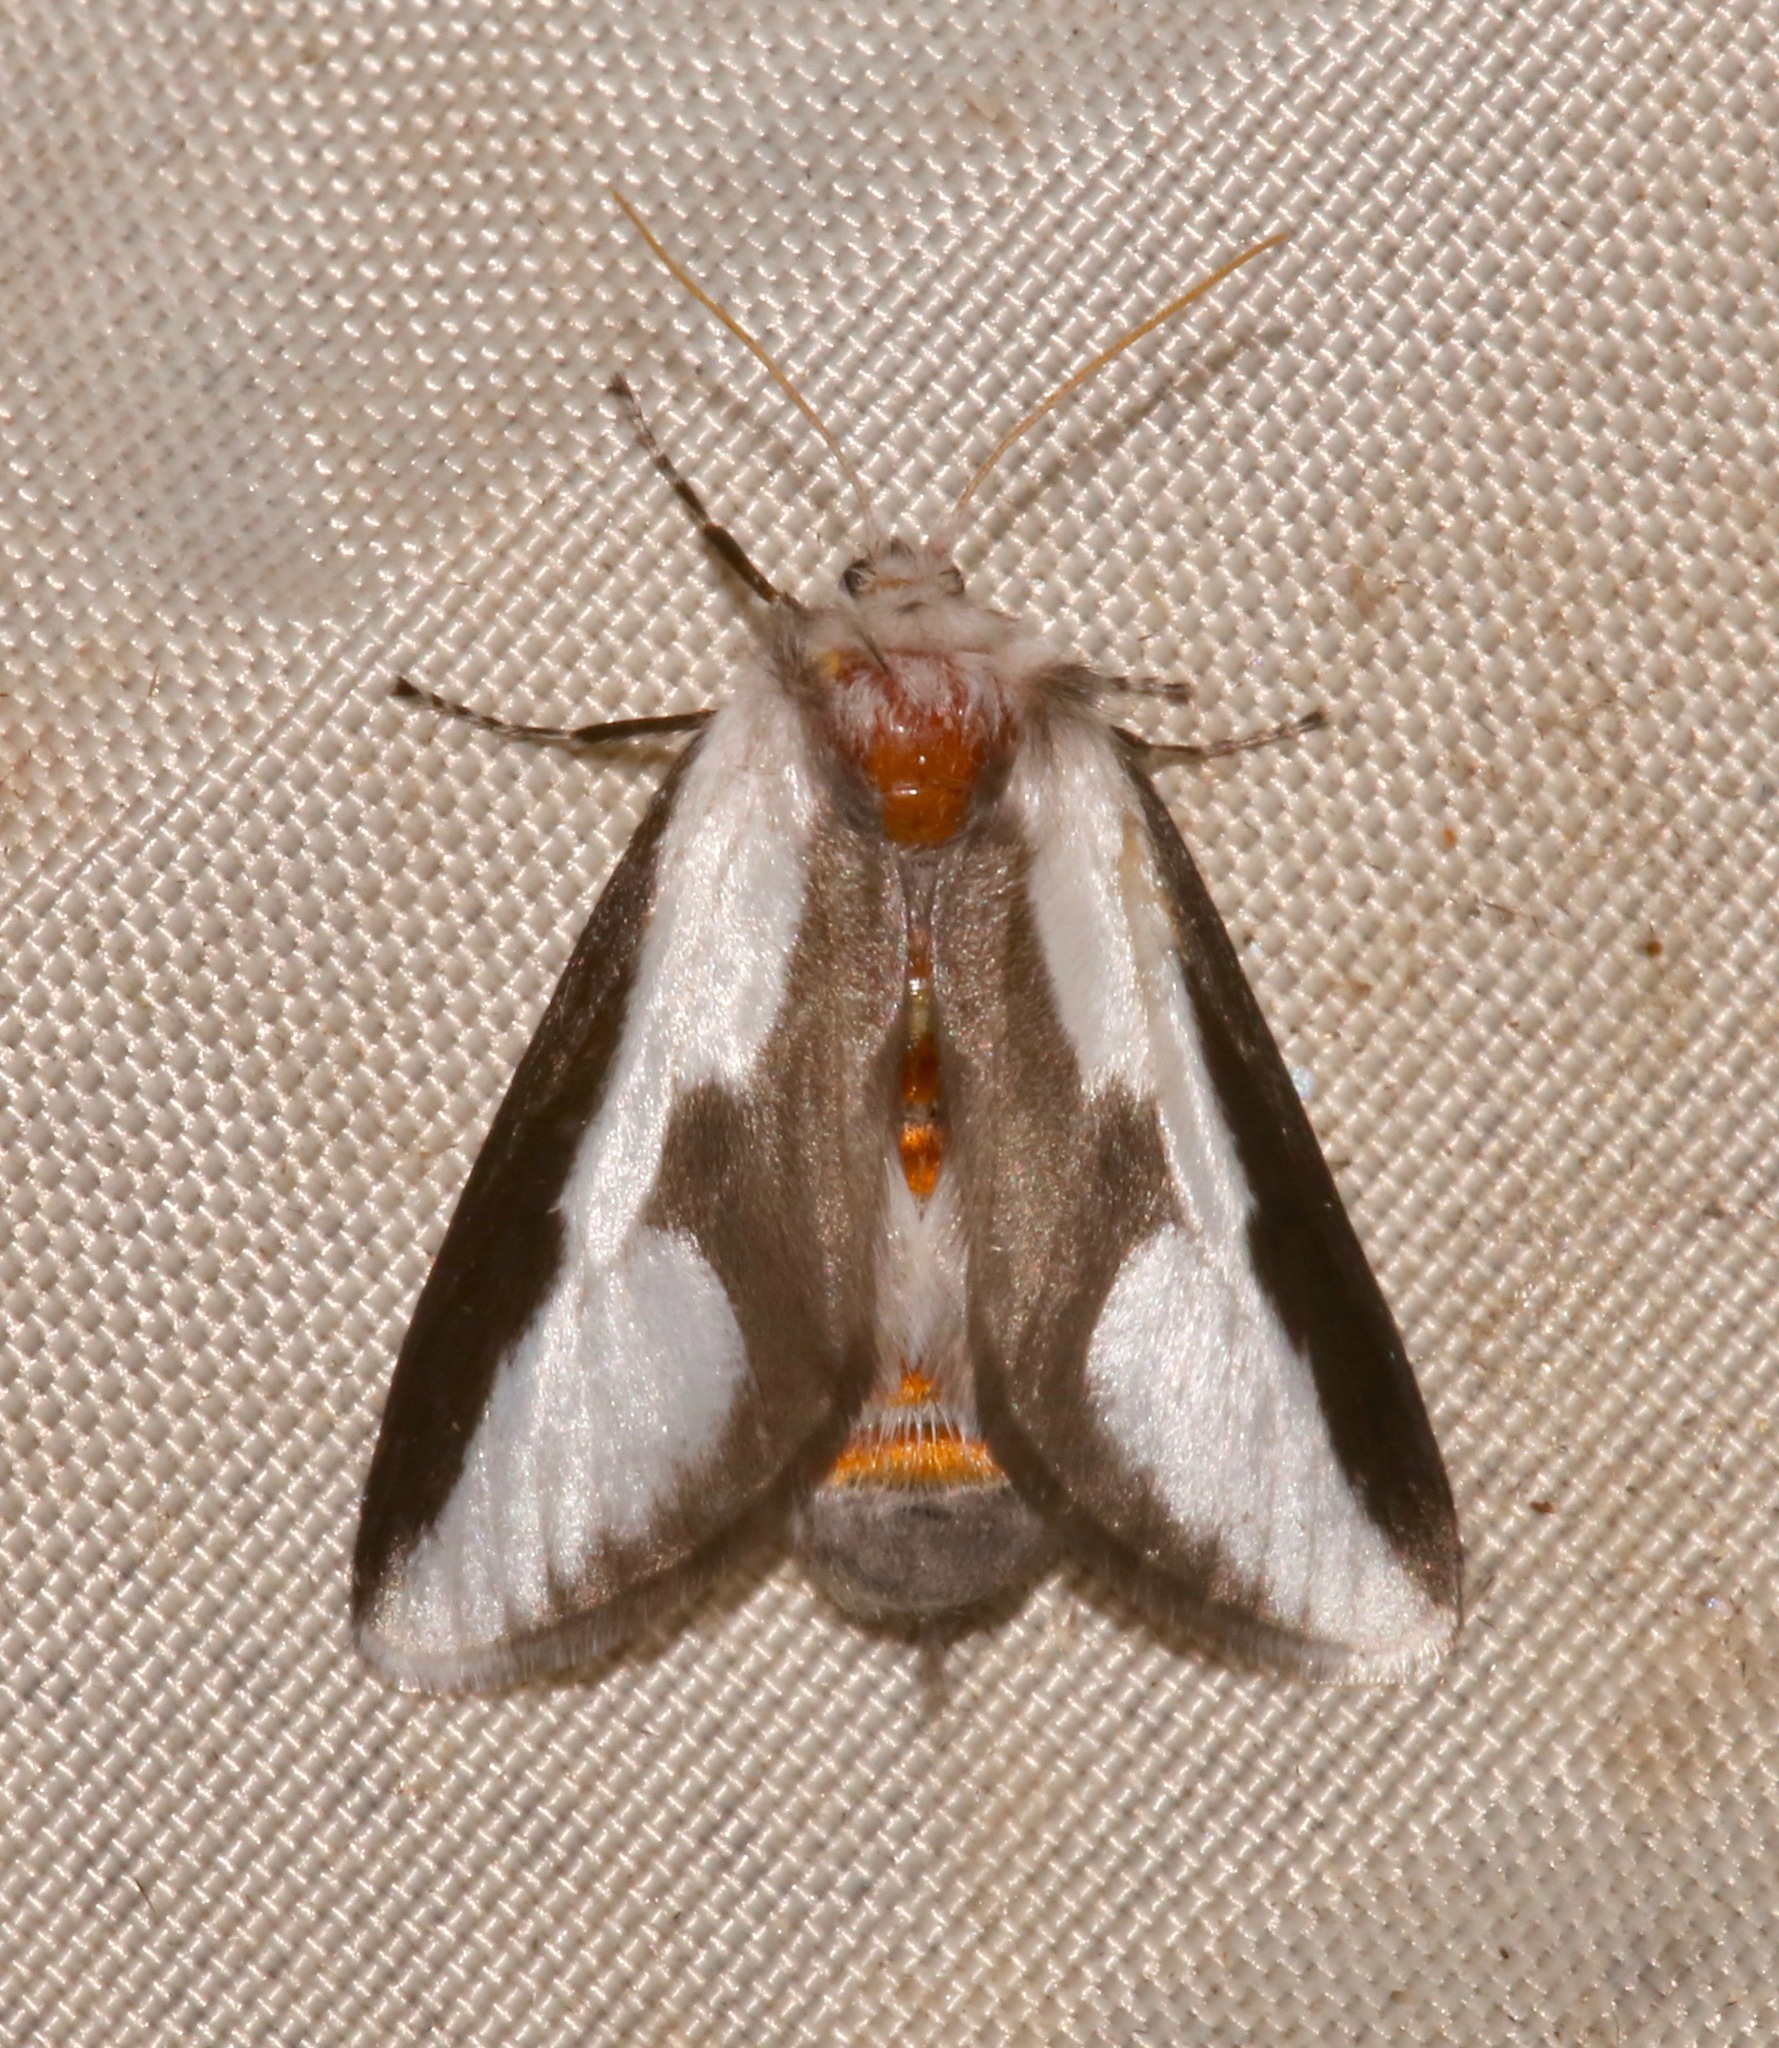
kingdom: Animalia
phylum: Arthropoda
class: Insecta
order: Lepidoptera
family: Megalopygidae
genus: Norape
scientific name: Norape tener
